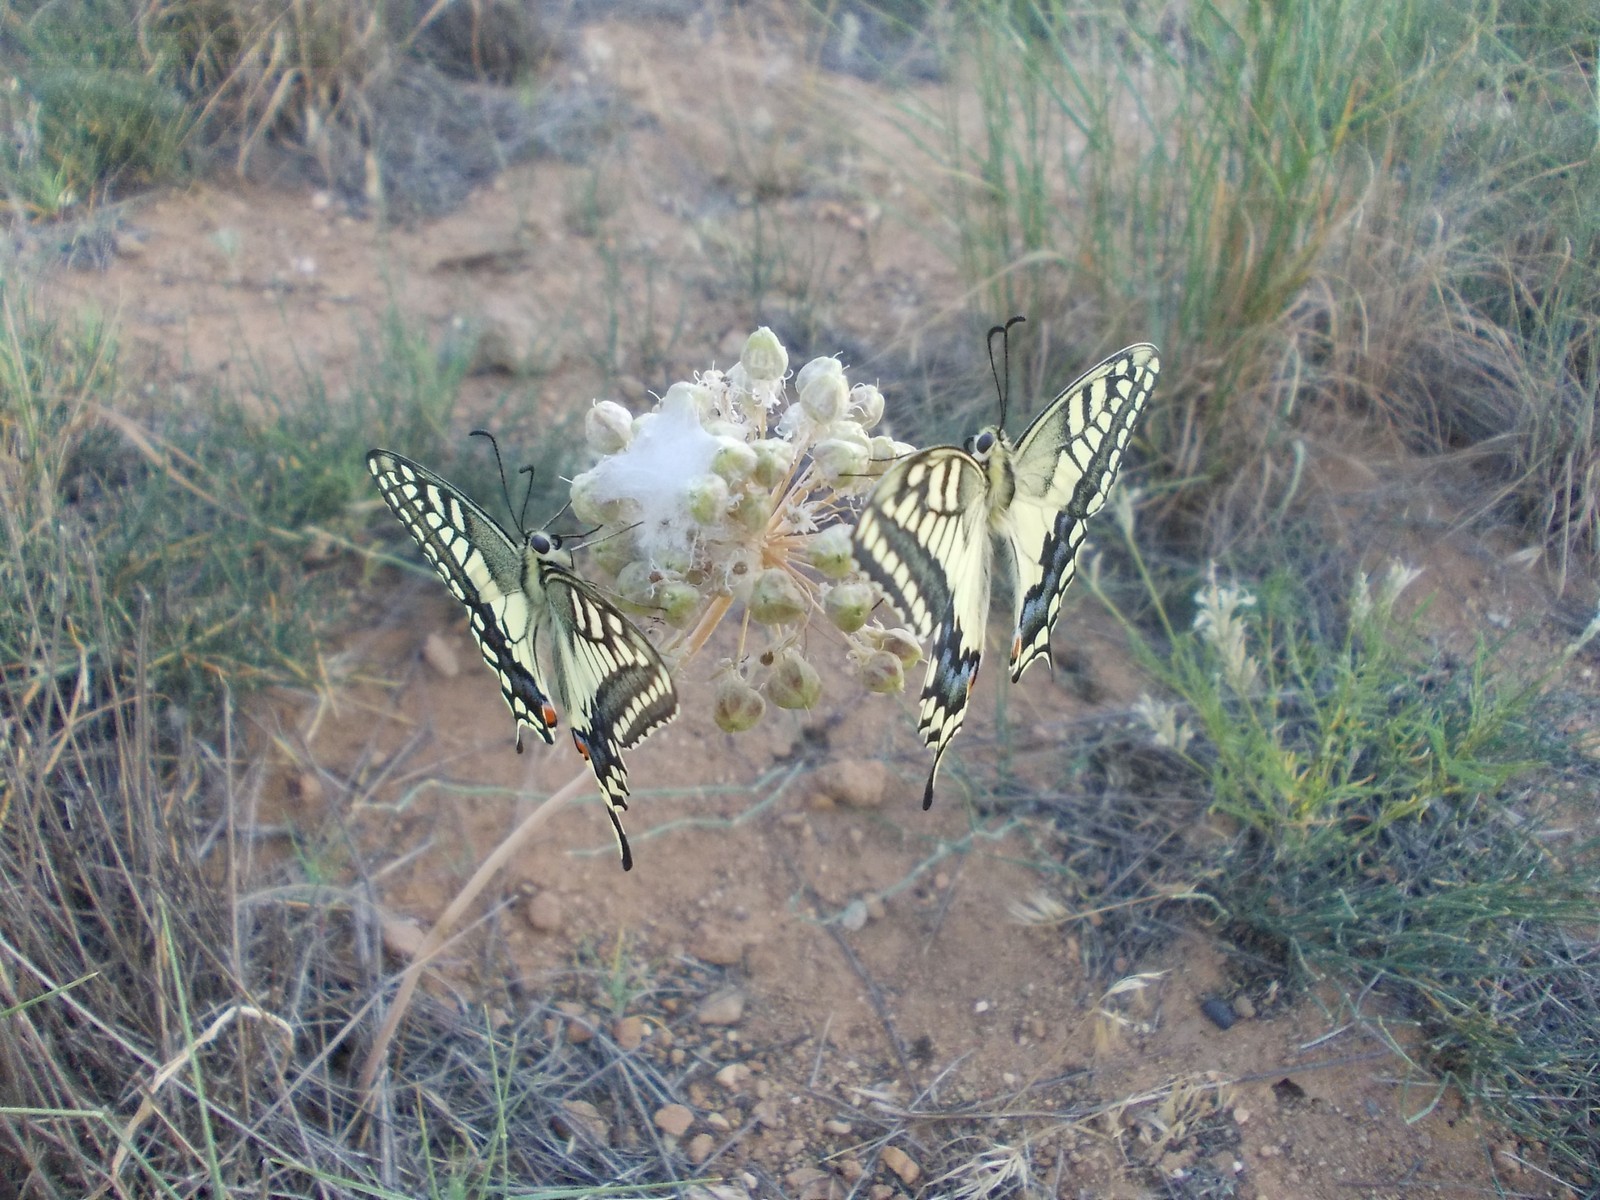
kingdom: Plantae
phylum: Tracheophyta
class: Liliopsida
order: Asparagales
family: Amaryllidaceae
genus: Allium
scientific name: Allium tulipifolium
